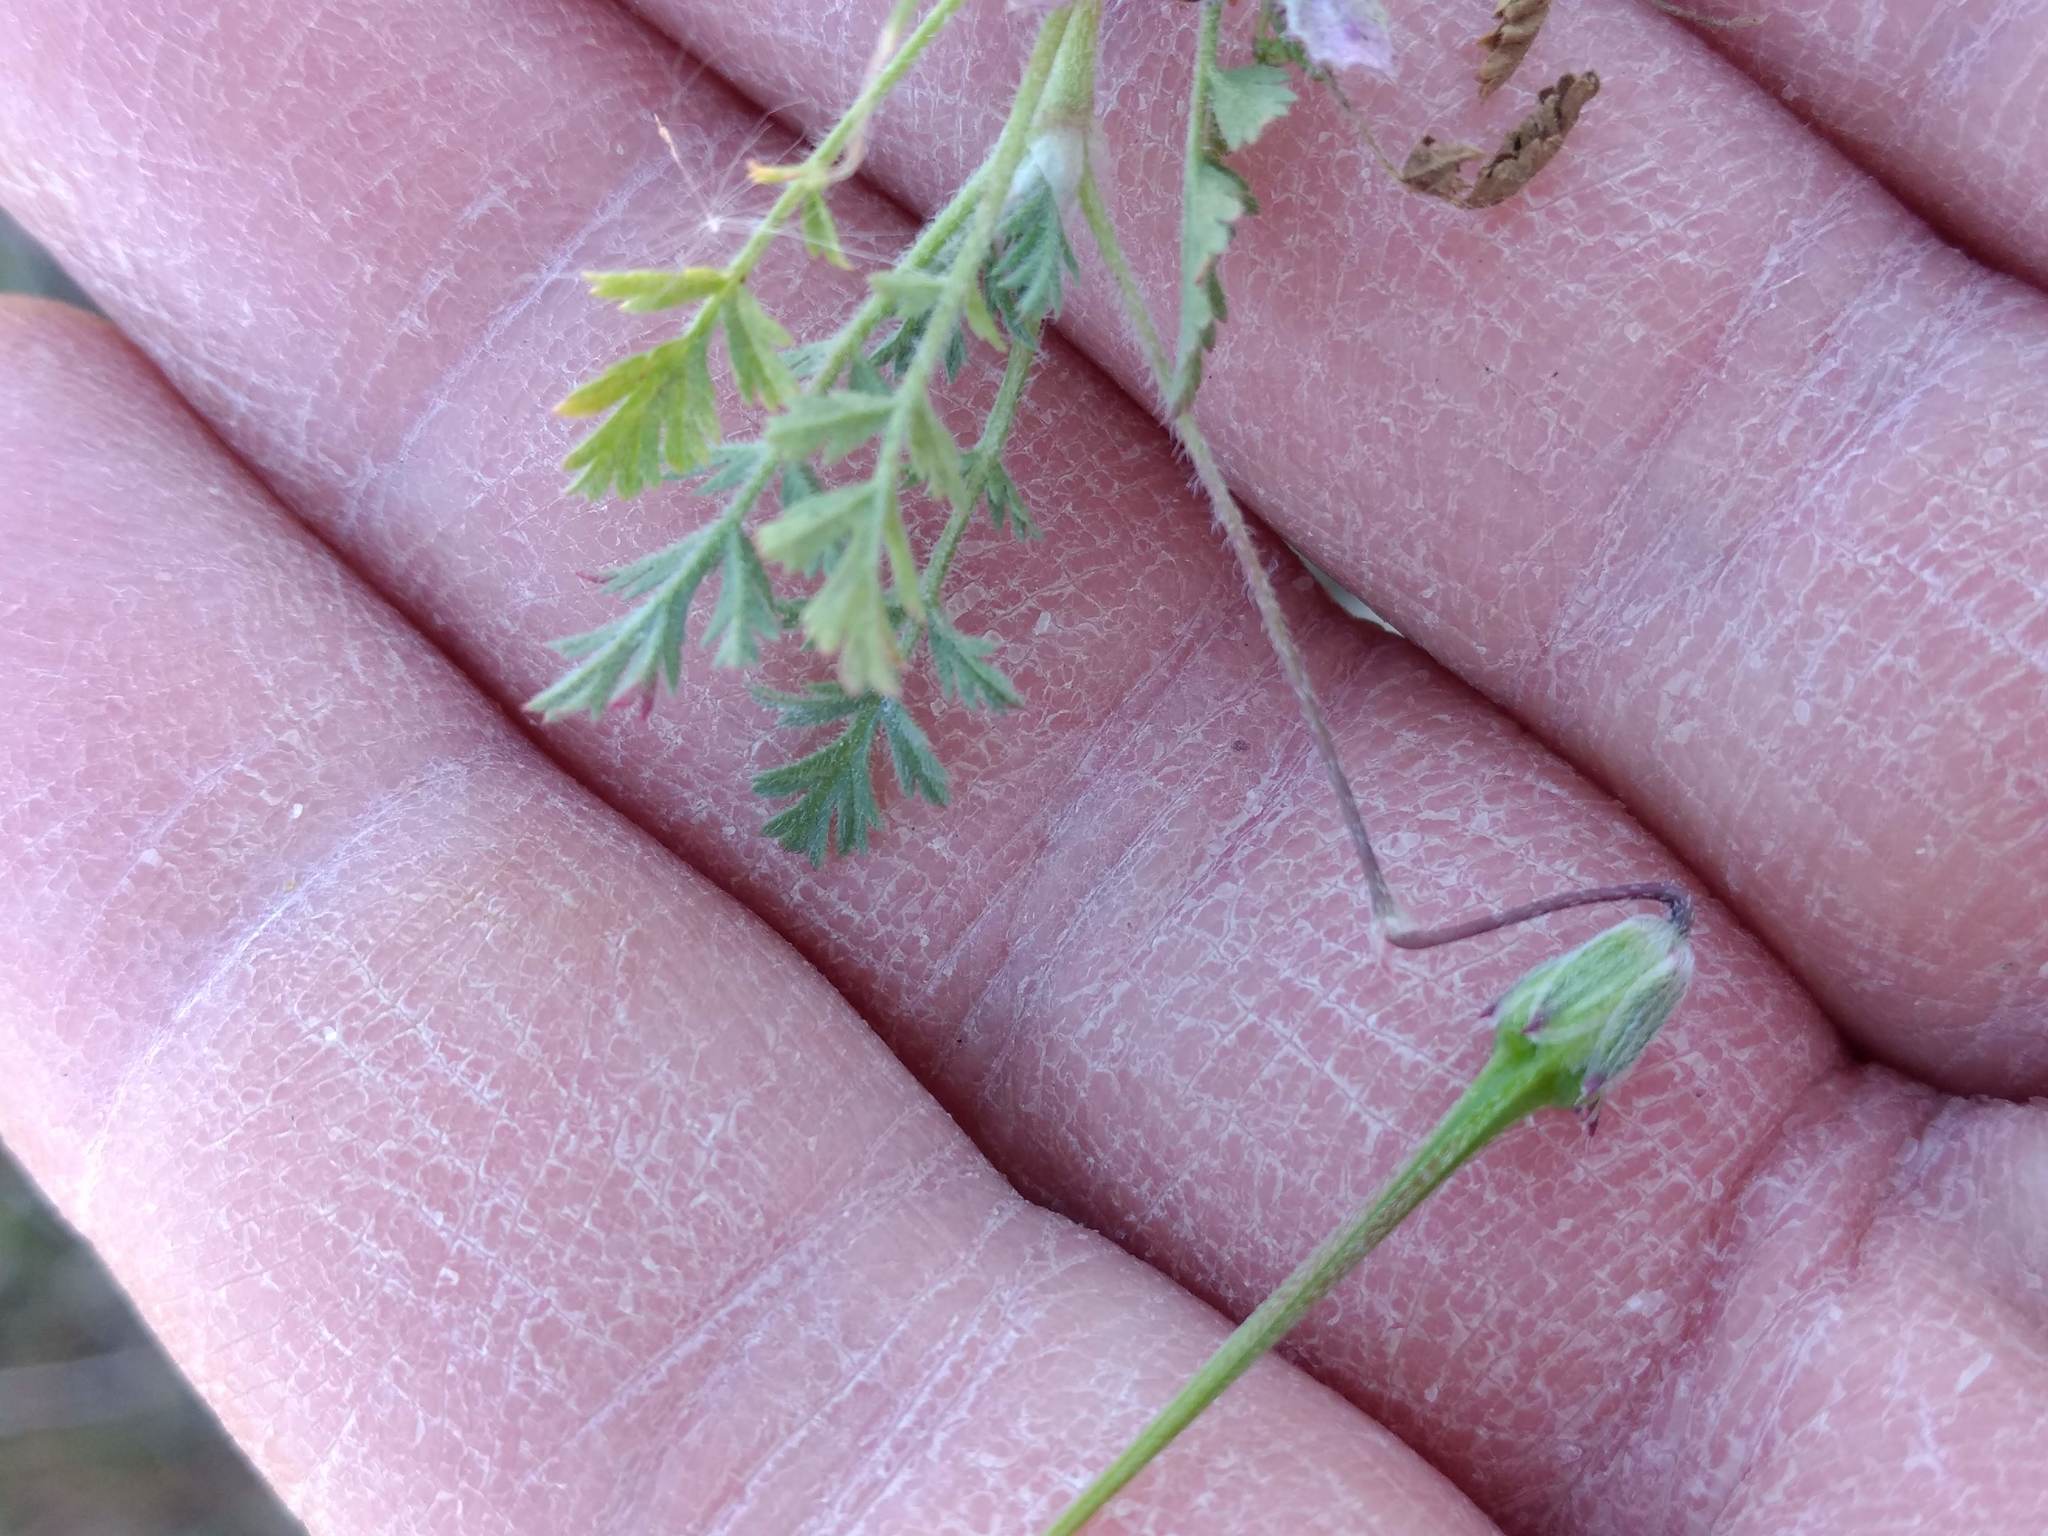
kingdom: Plantae
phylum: Tracheophyta
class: Magnoliopsida
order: Geraniales
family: Geraniaceae
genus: Erodium
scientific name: Erodium cicutarium
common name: Common stork's-bill
